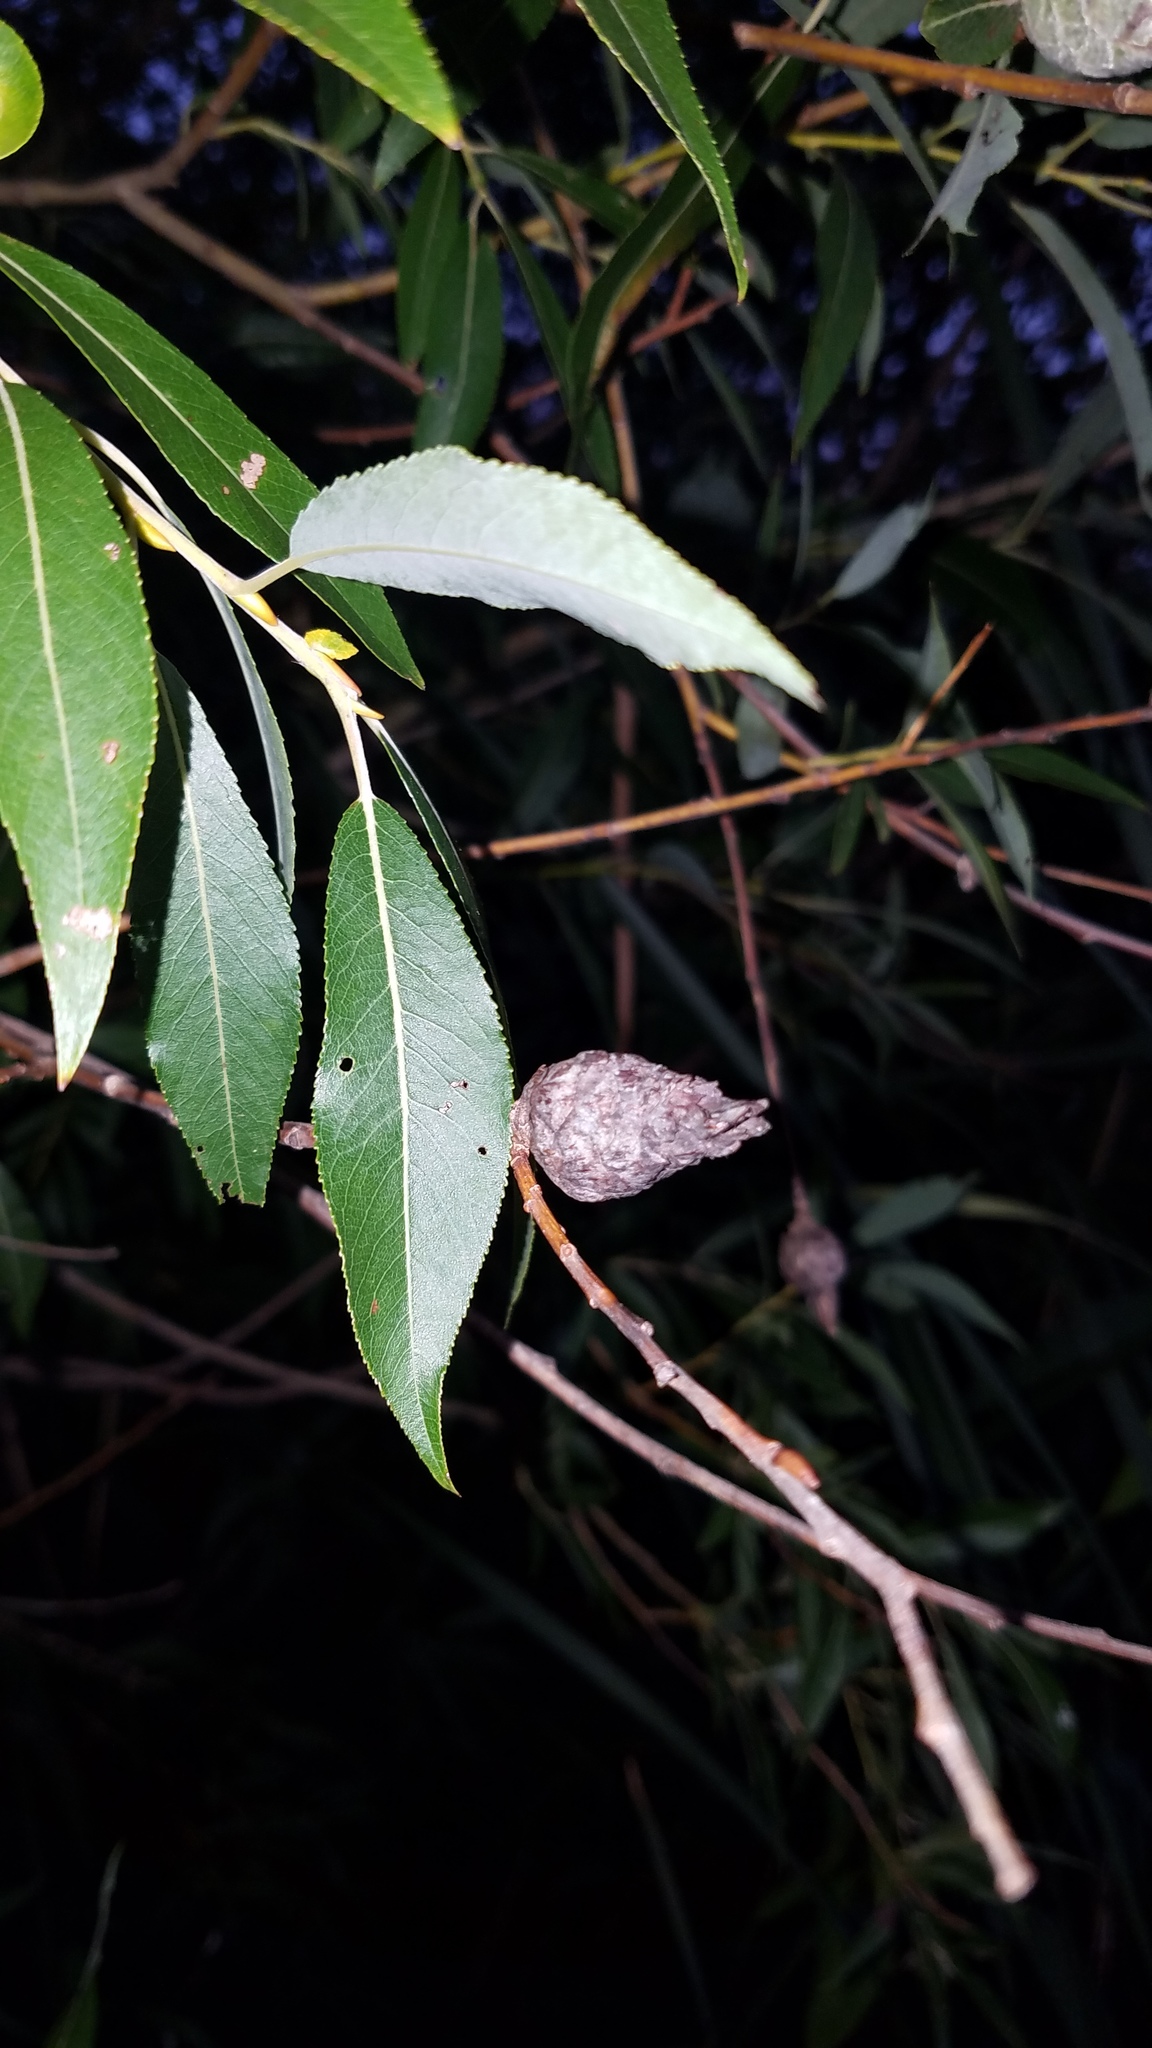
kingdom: Animalia
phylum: Arthropoda
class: Insecta
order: Diptera
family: Cecidomyiidae
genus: Rabdophaga
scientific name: Rabdophaga strobiloides
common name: Willow pinecone gall midge
